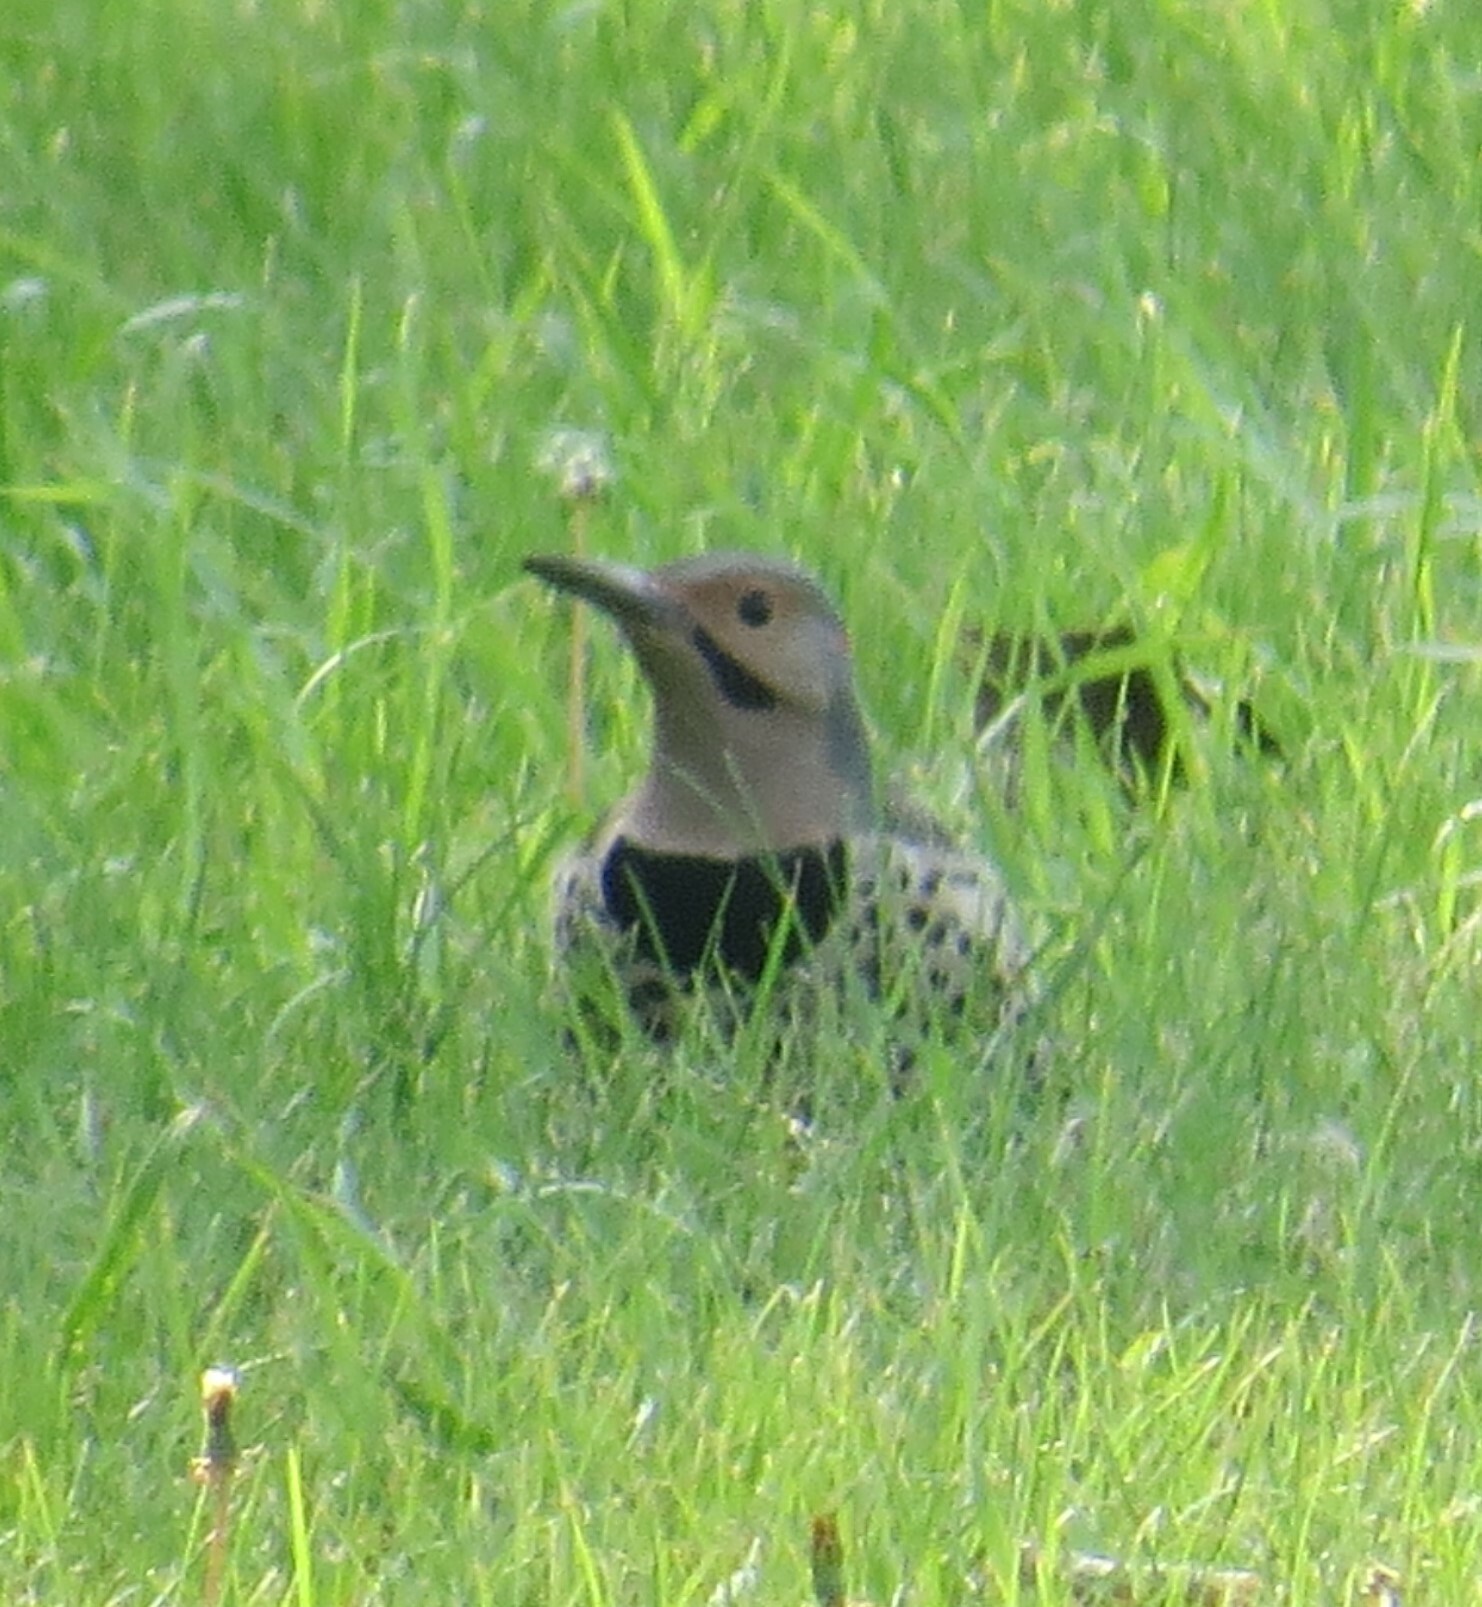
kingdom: Animalia
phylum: Chordata
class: Aves
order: Piciformes
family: Picidae
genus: Colaptes
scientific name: Colaptes auratus
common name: Northern flicker
